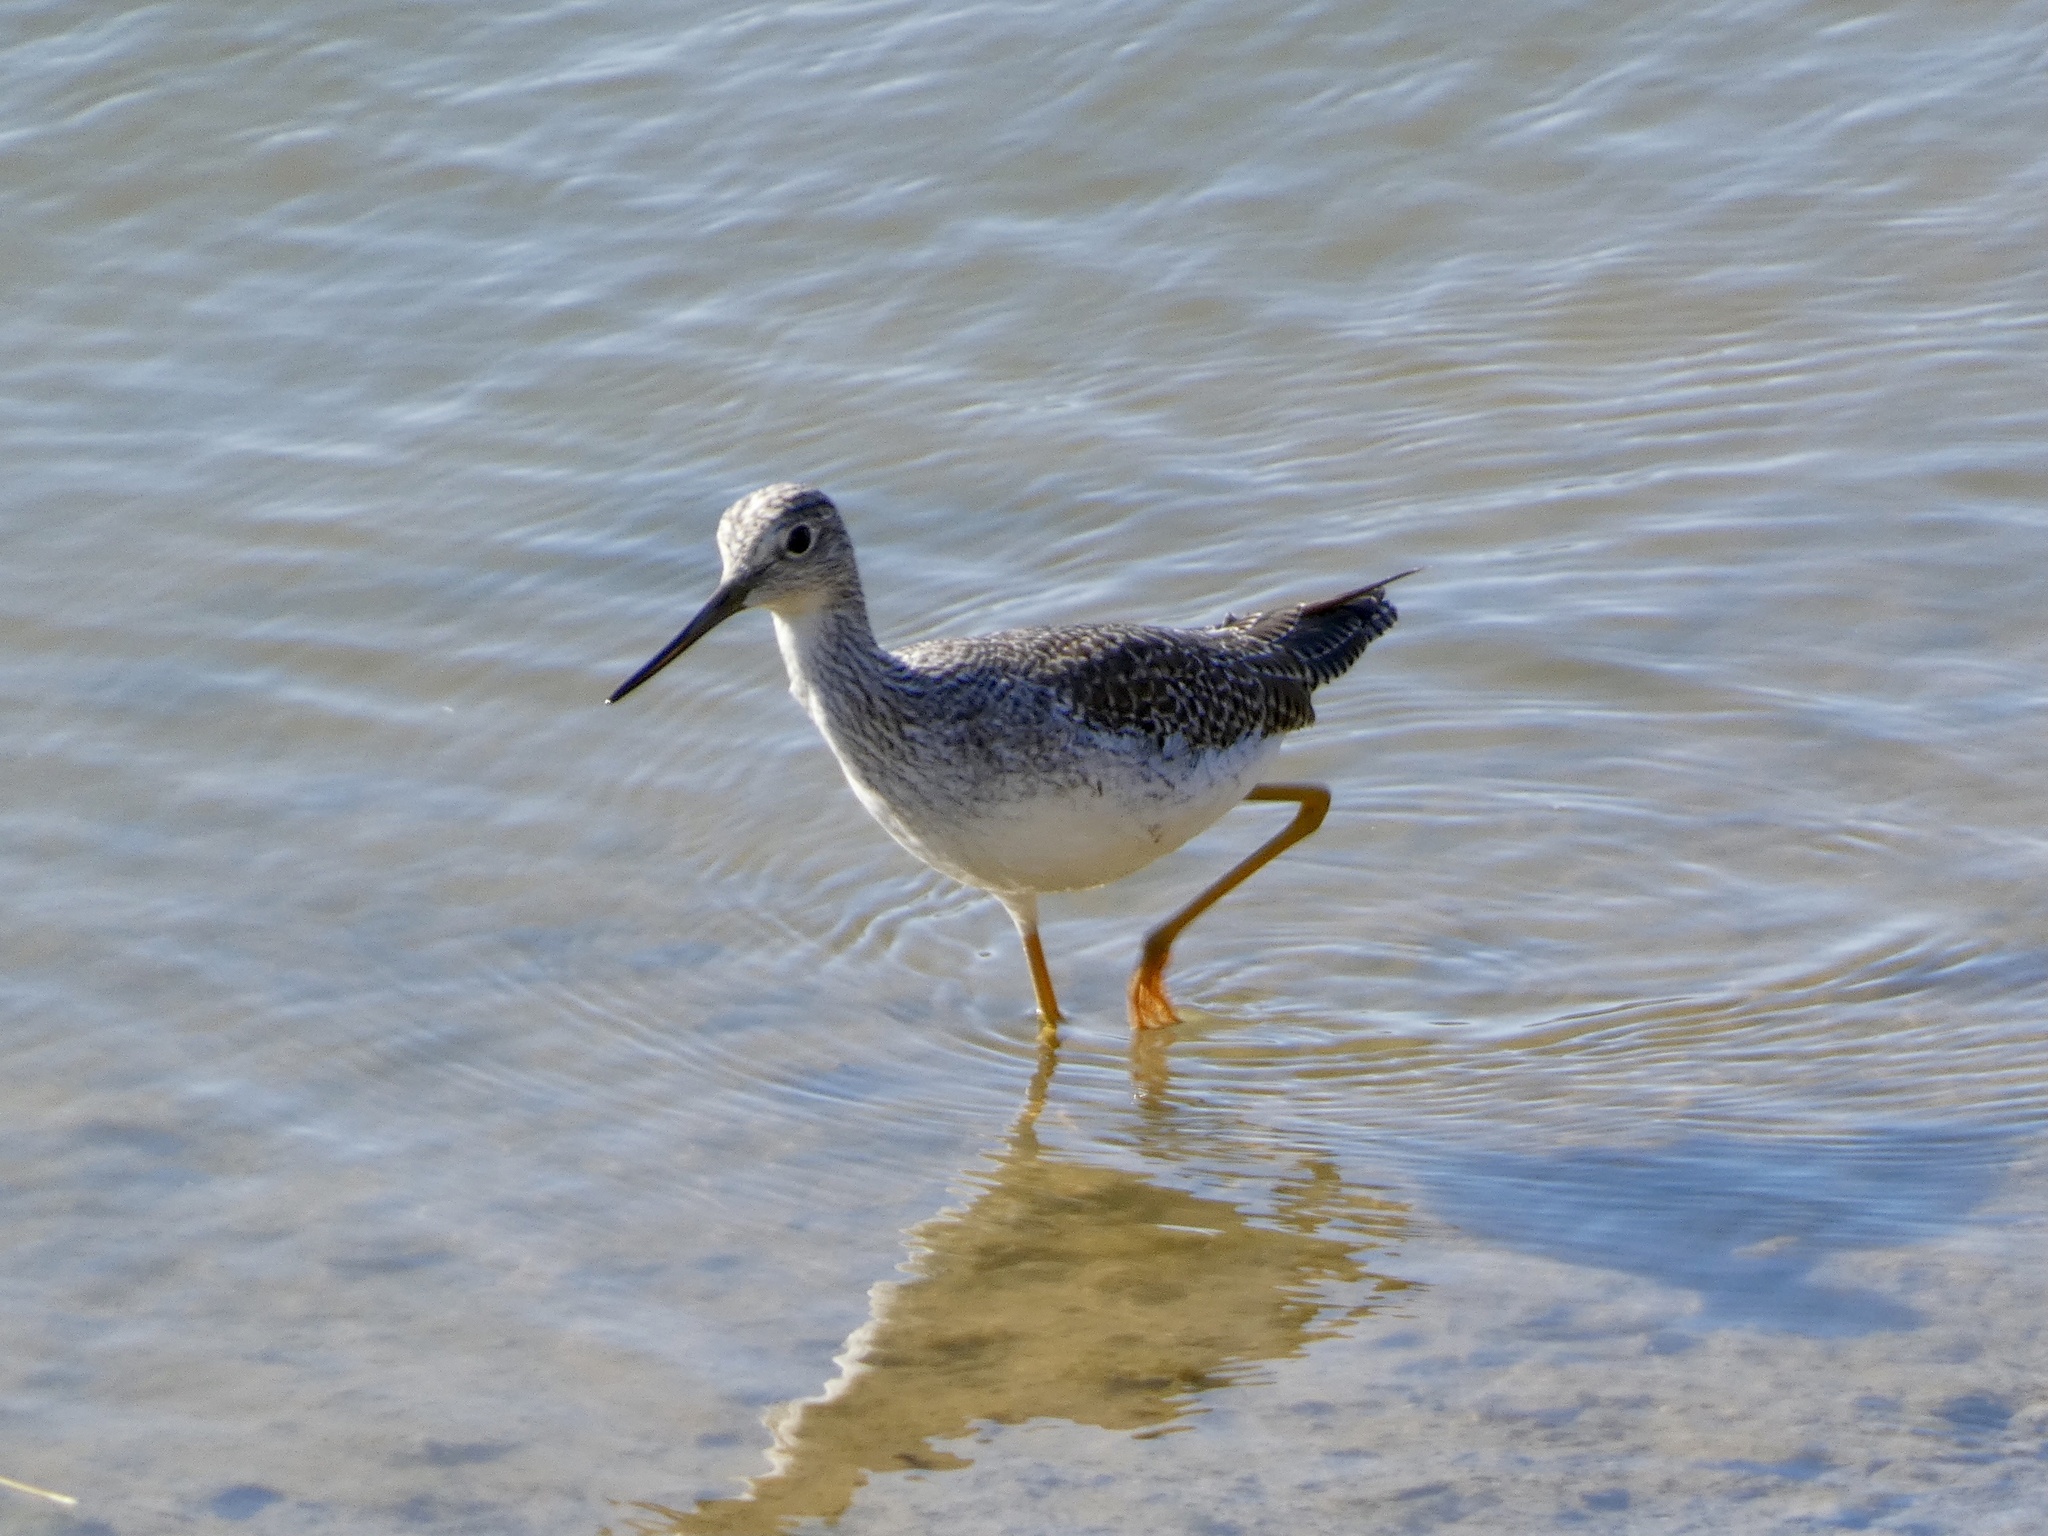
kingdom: Animalia
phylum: Chordata
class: Aves
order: Charadriiformes
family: Scolopacidae
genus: Tringa
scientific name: Tringa melanoleuca
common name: Greater yellowlegs
